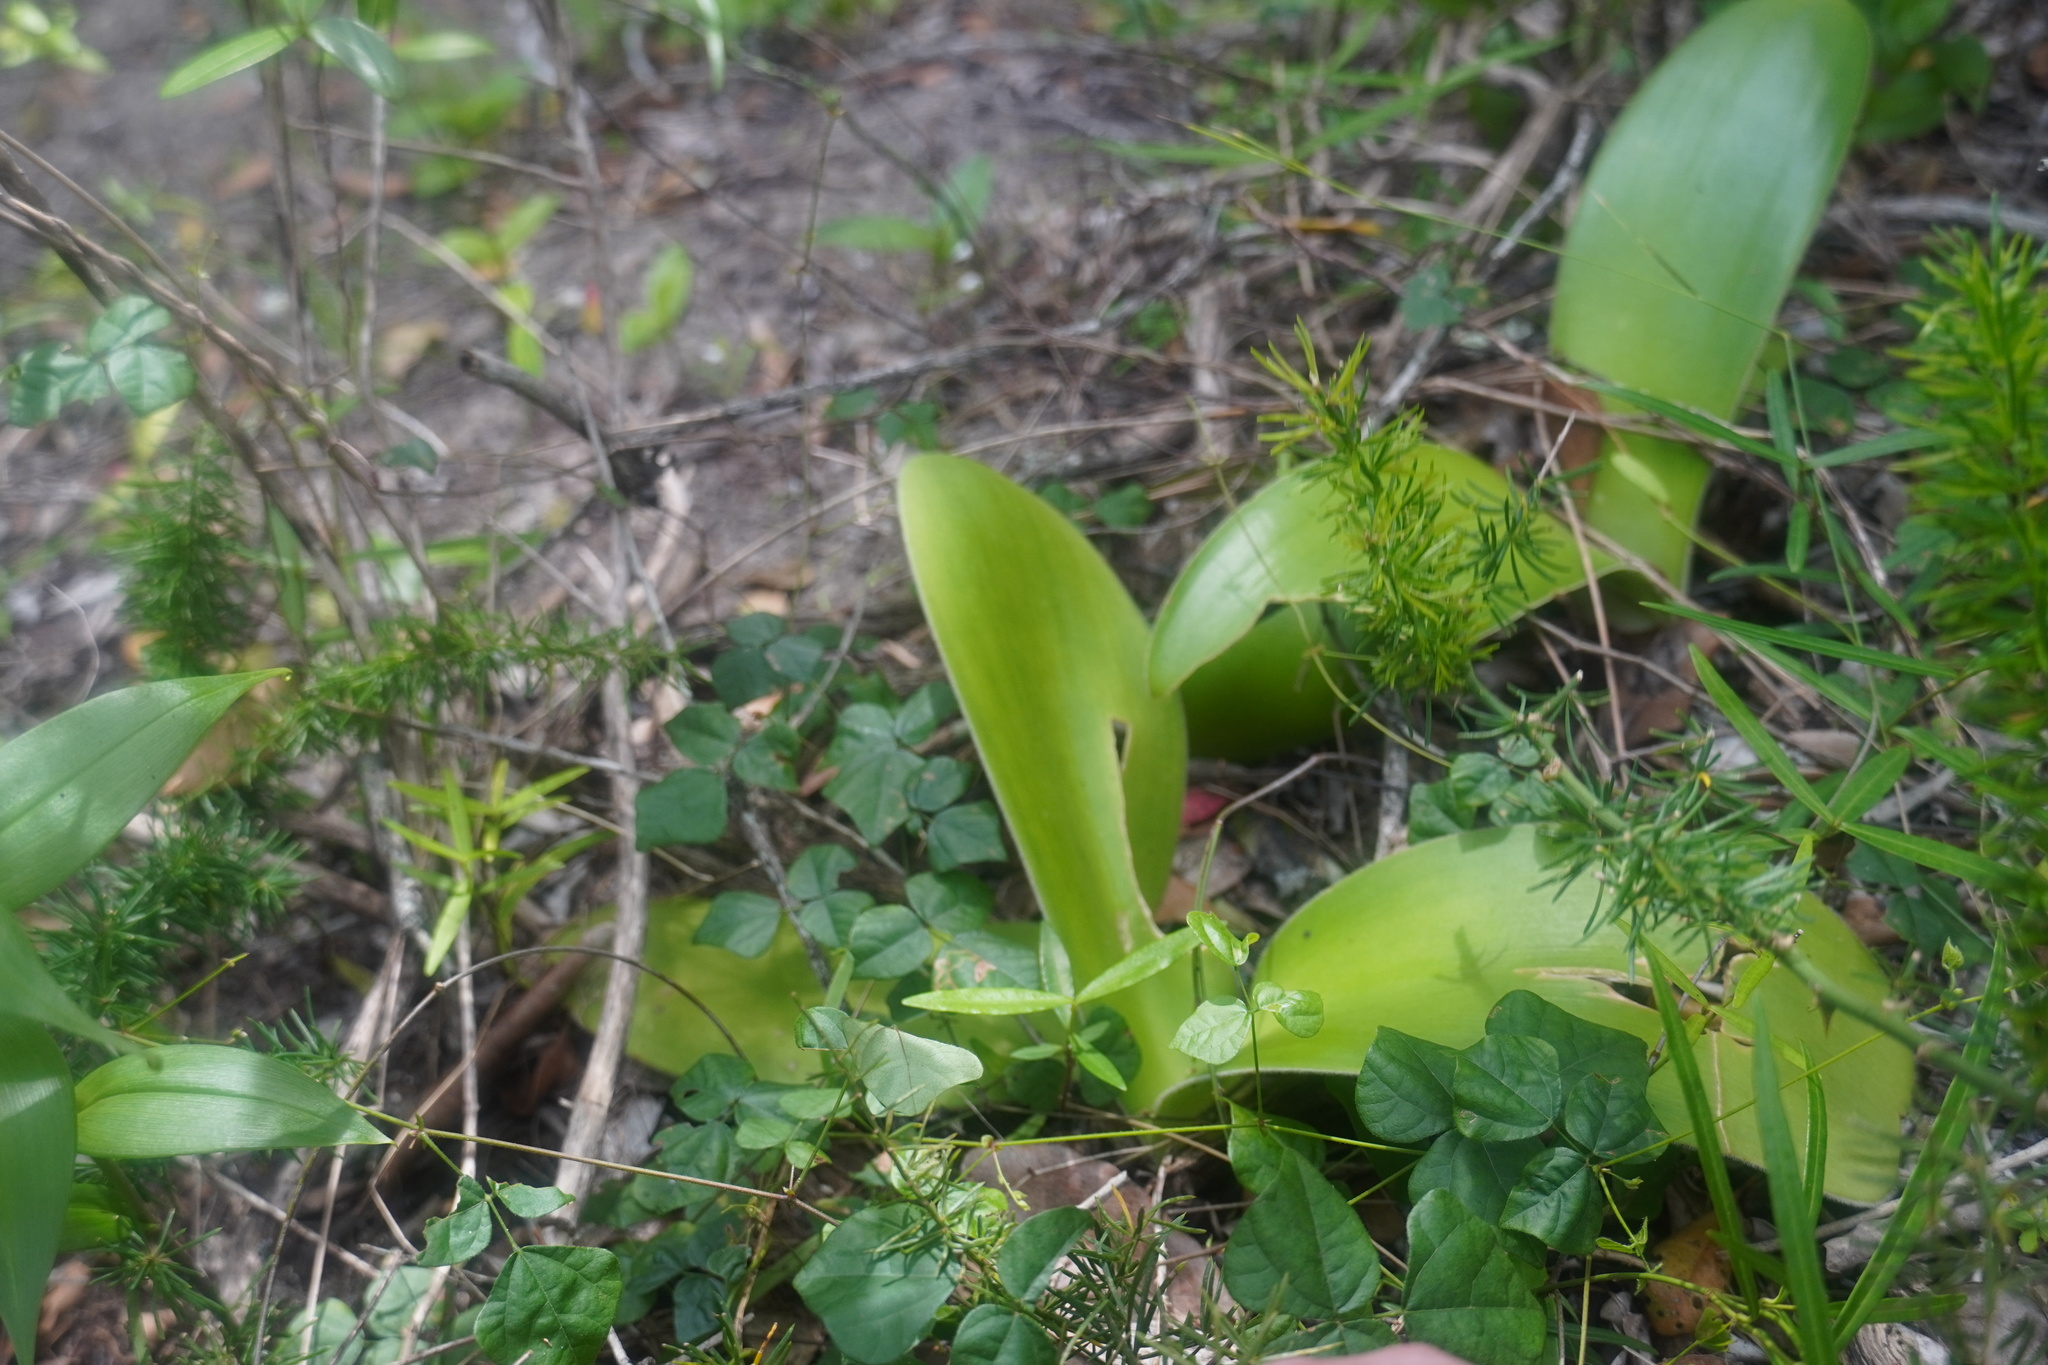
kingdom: Plantae
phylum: Tracheophyta
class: Liliopsida
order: Asparagales
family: Amaryllidaceae
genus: Haemanthus
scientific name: Haemanthus albiflos
